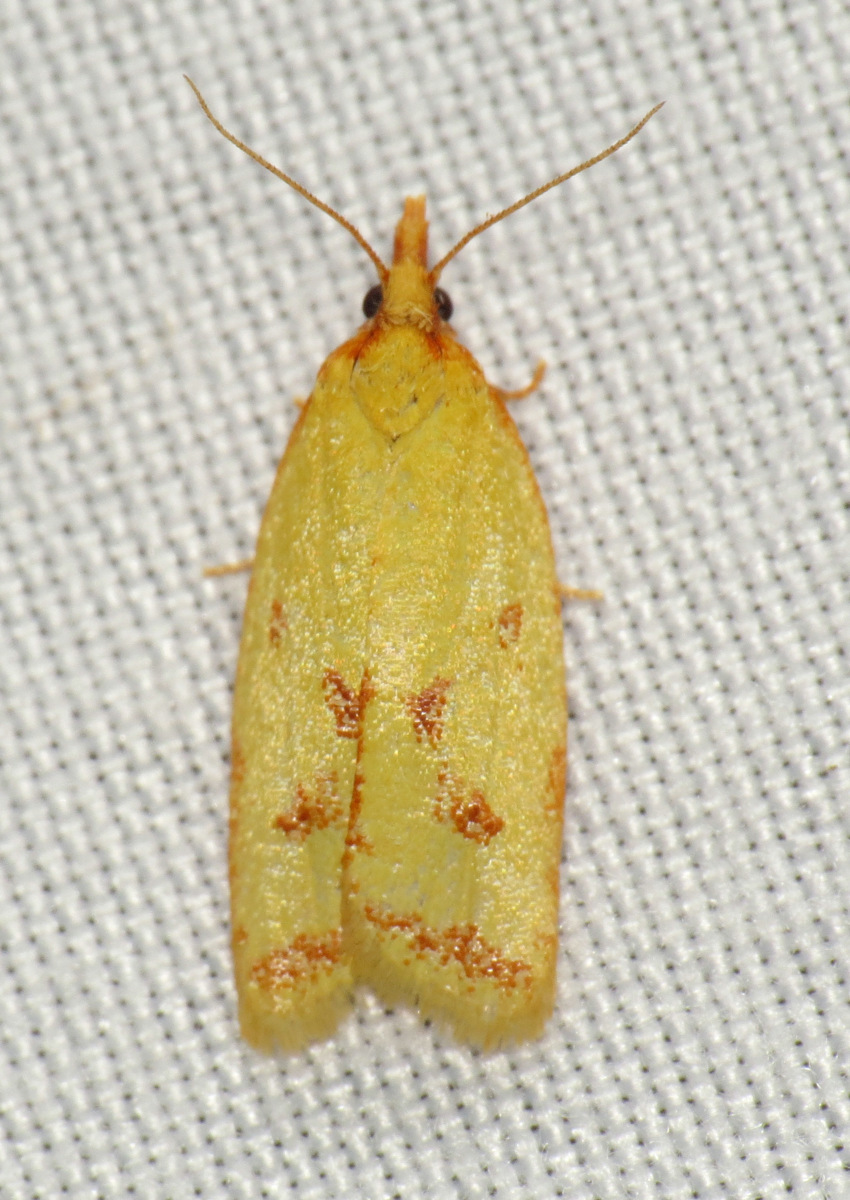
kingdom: Animalia
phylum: Arthropoda
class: Insecta
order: Lepidoptera
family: Tortricidae
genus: Sparganothis
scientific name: Sparganothis sulfureana
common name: Sparganothis fruitworm moth
